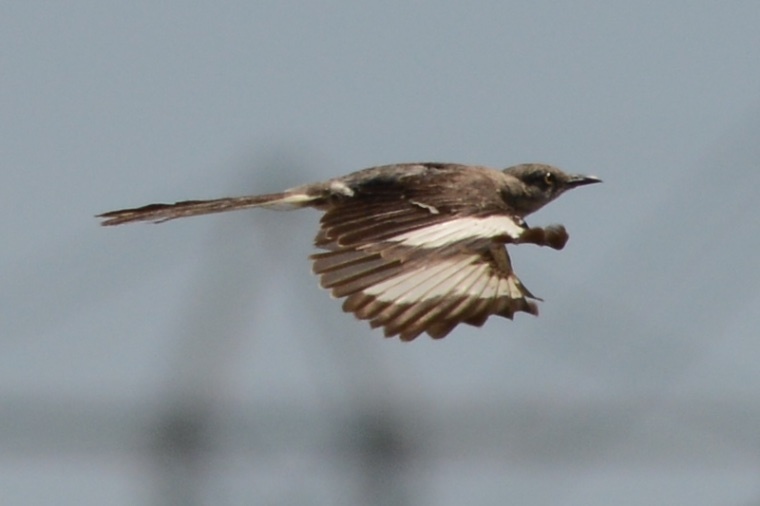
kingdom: Animalia
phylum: Chordata
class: Aves
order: Passeriformes
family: Mimidae
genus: Mimus
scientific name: Mimus polyglottos
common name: Northern mockingbird
